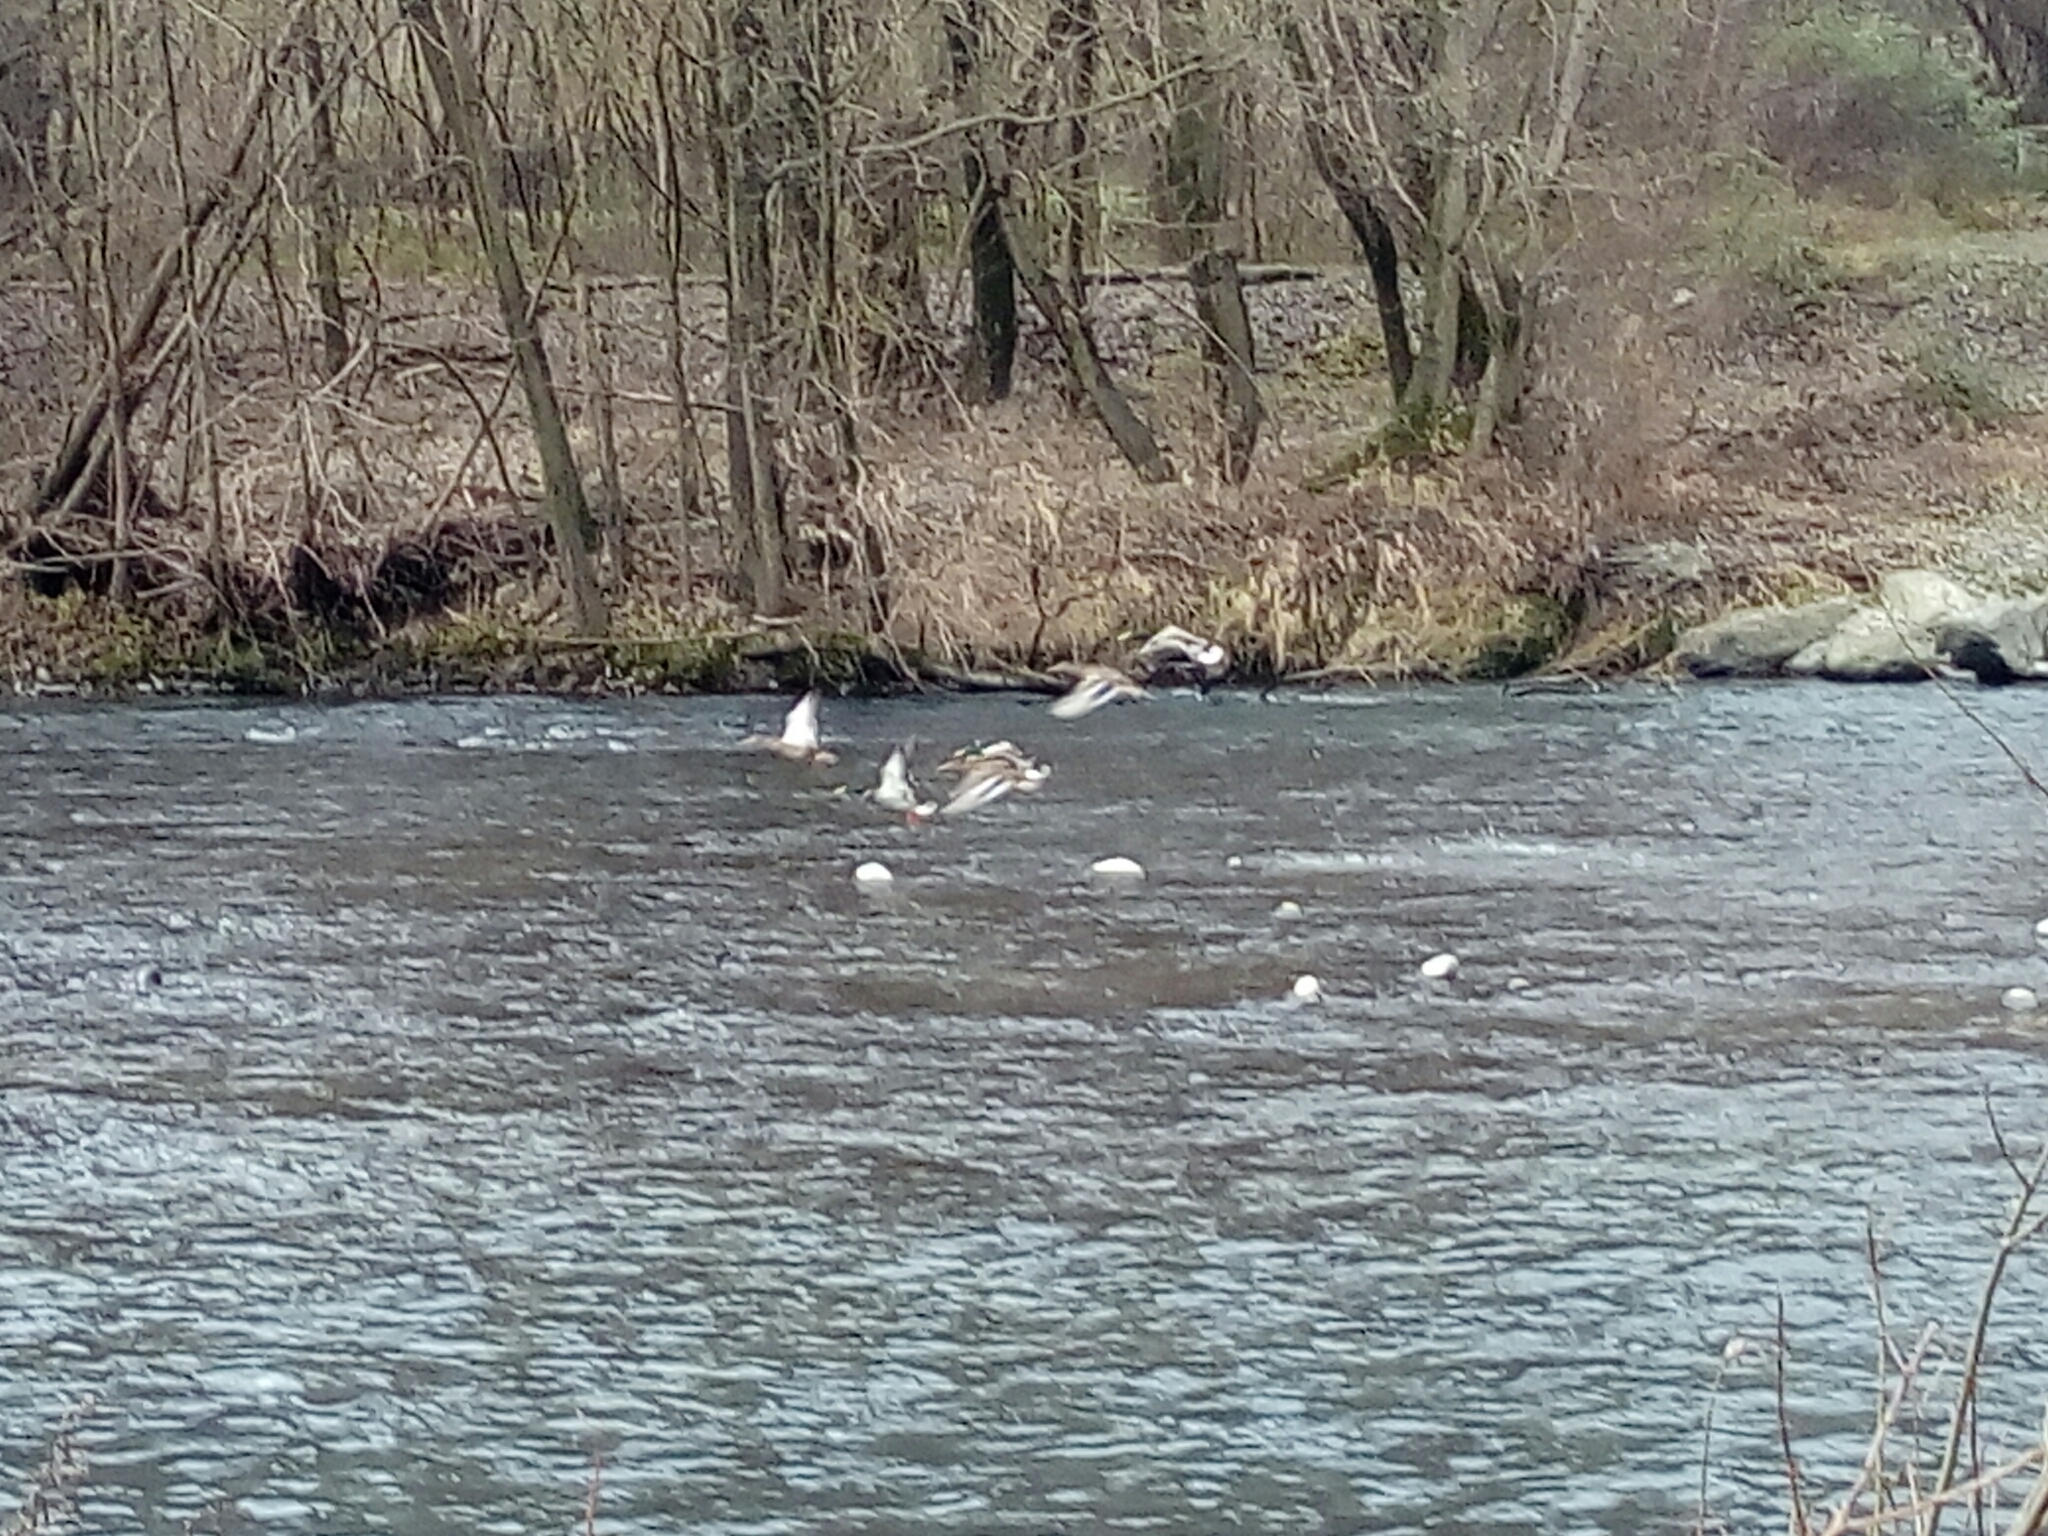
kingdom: Animalia
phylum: Chordata
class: Aves
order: Anseriformes
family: Anatidae
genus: Anas
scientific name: Anas platyrhynchos
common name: Mallard
